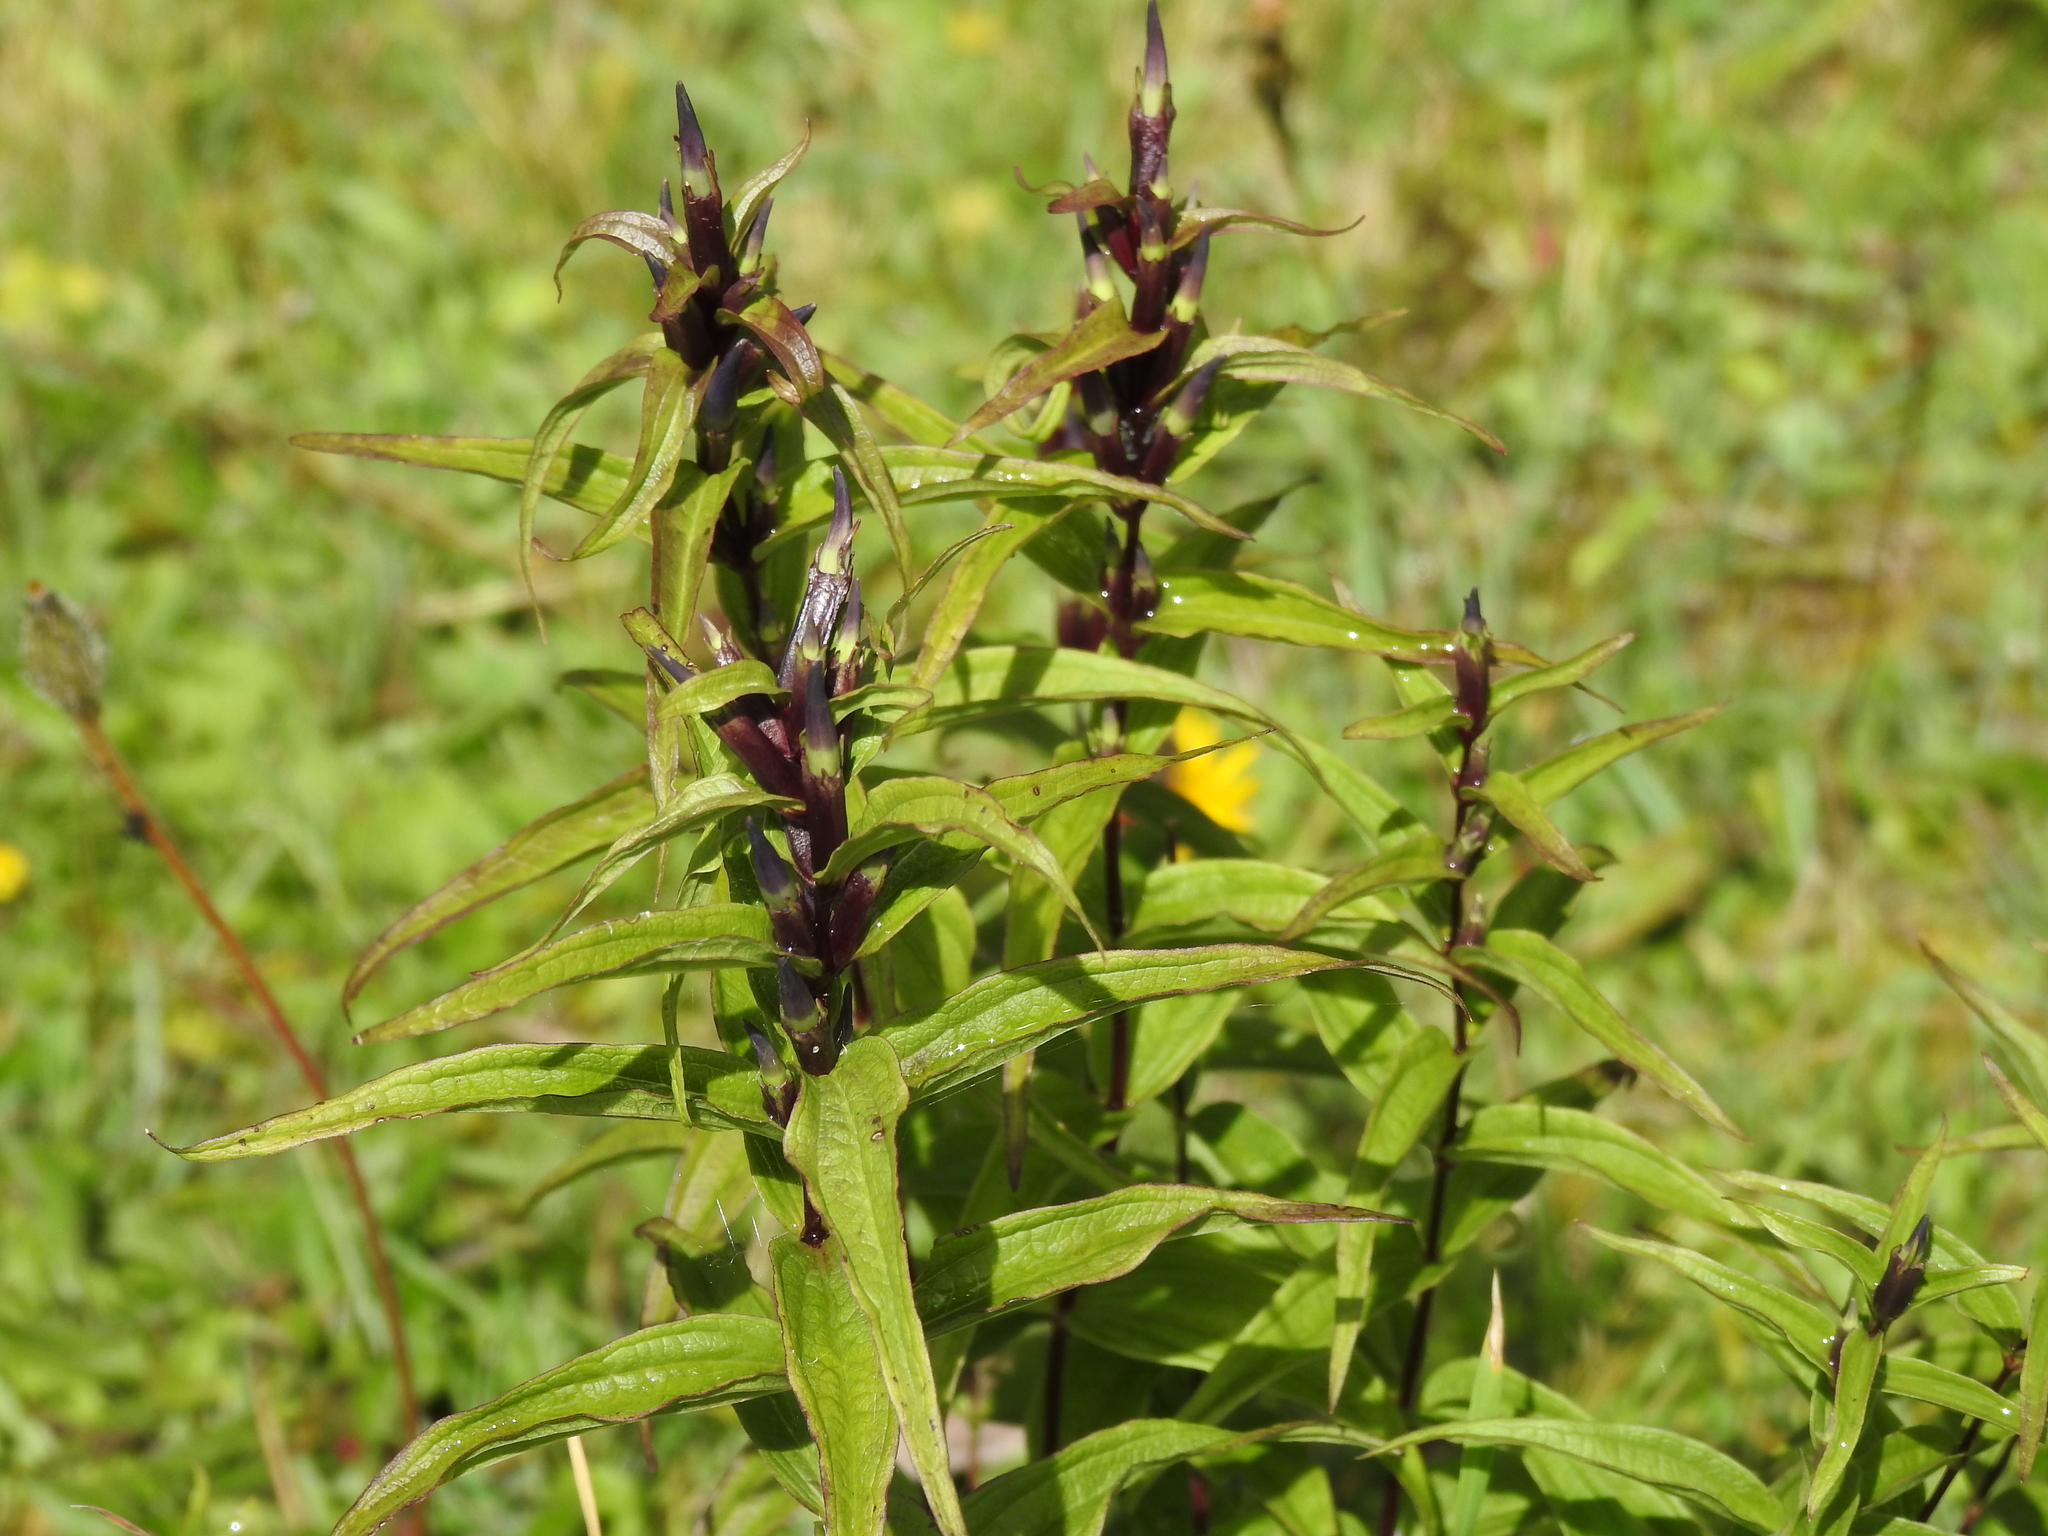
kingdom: Plantae
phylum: Tracheophyta
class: Magnoliopsida
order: Gentianales
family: Gentianaceae
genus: Gentiana
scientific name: Gentiana asclepiadea
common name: Willow gentian
